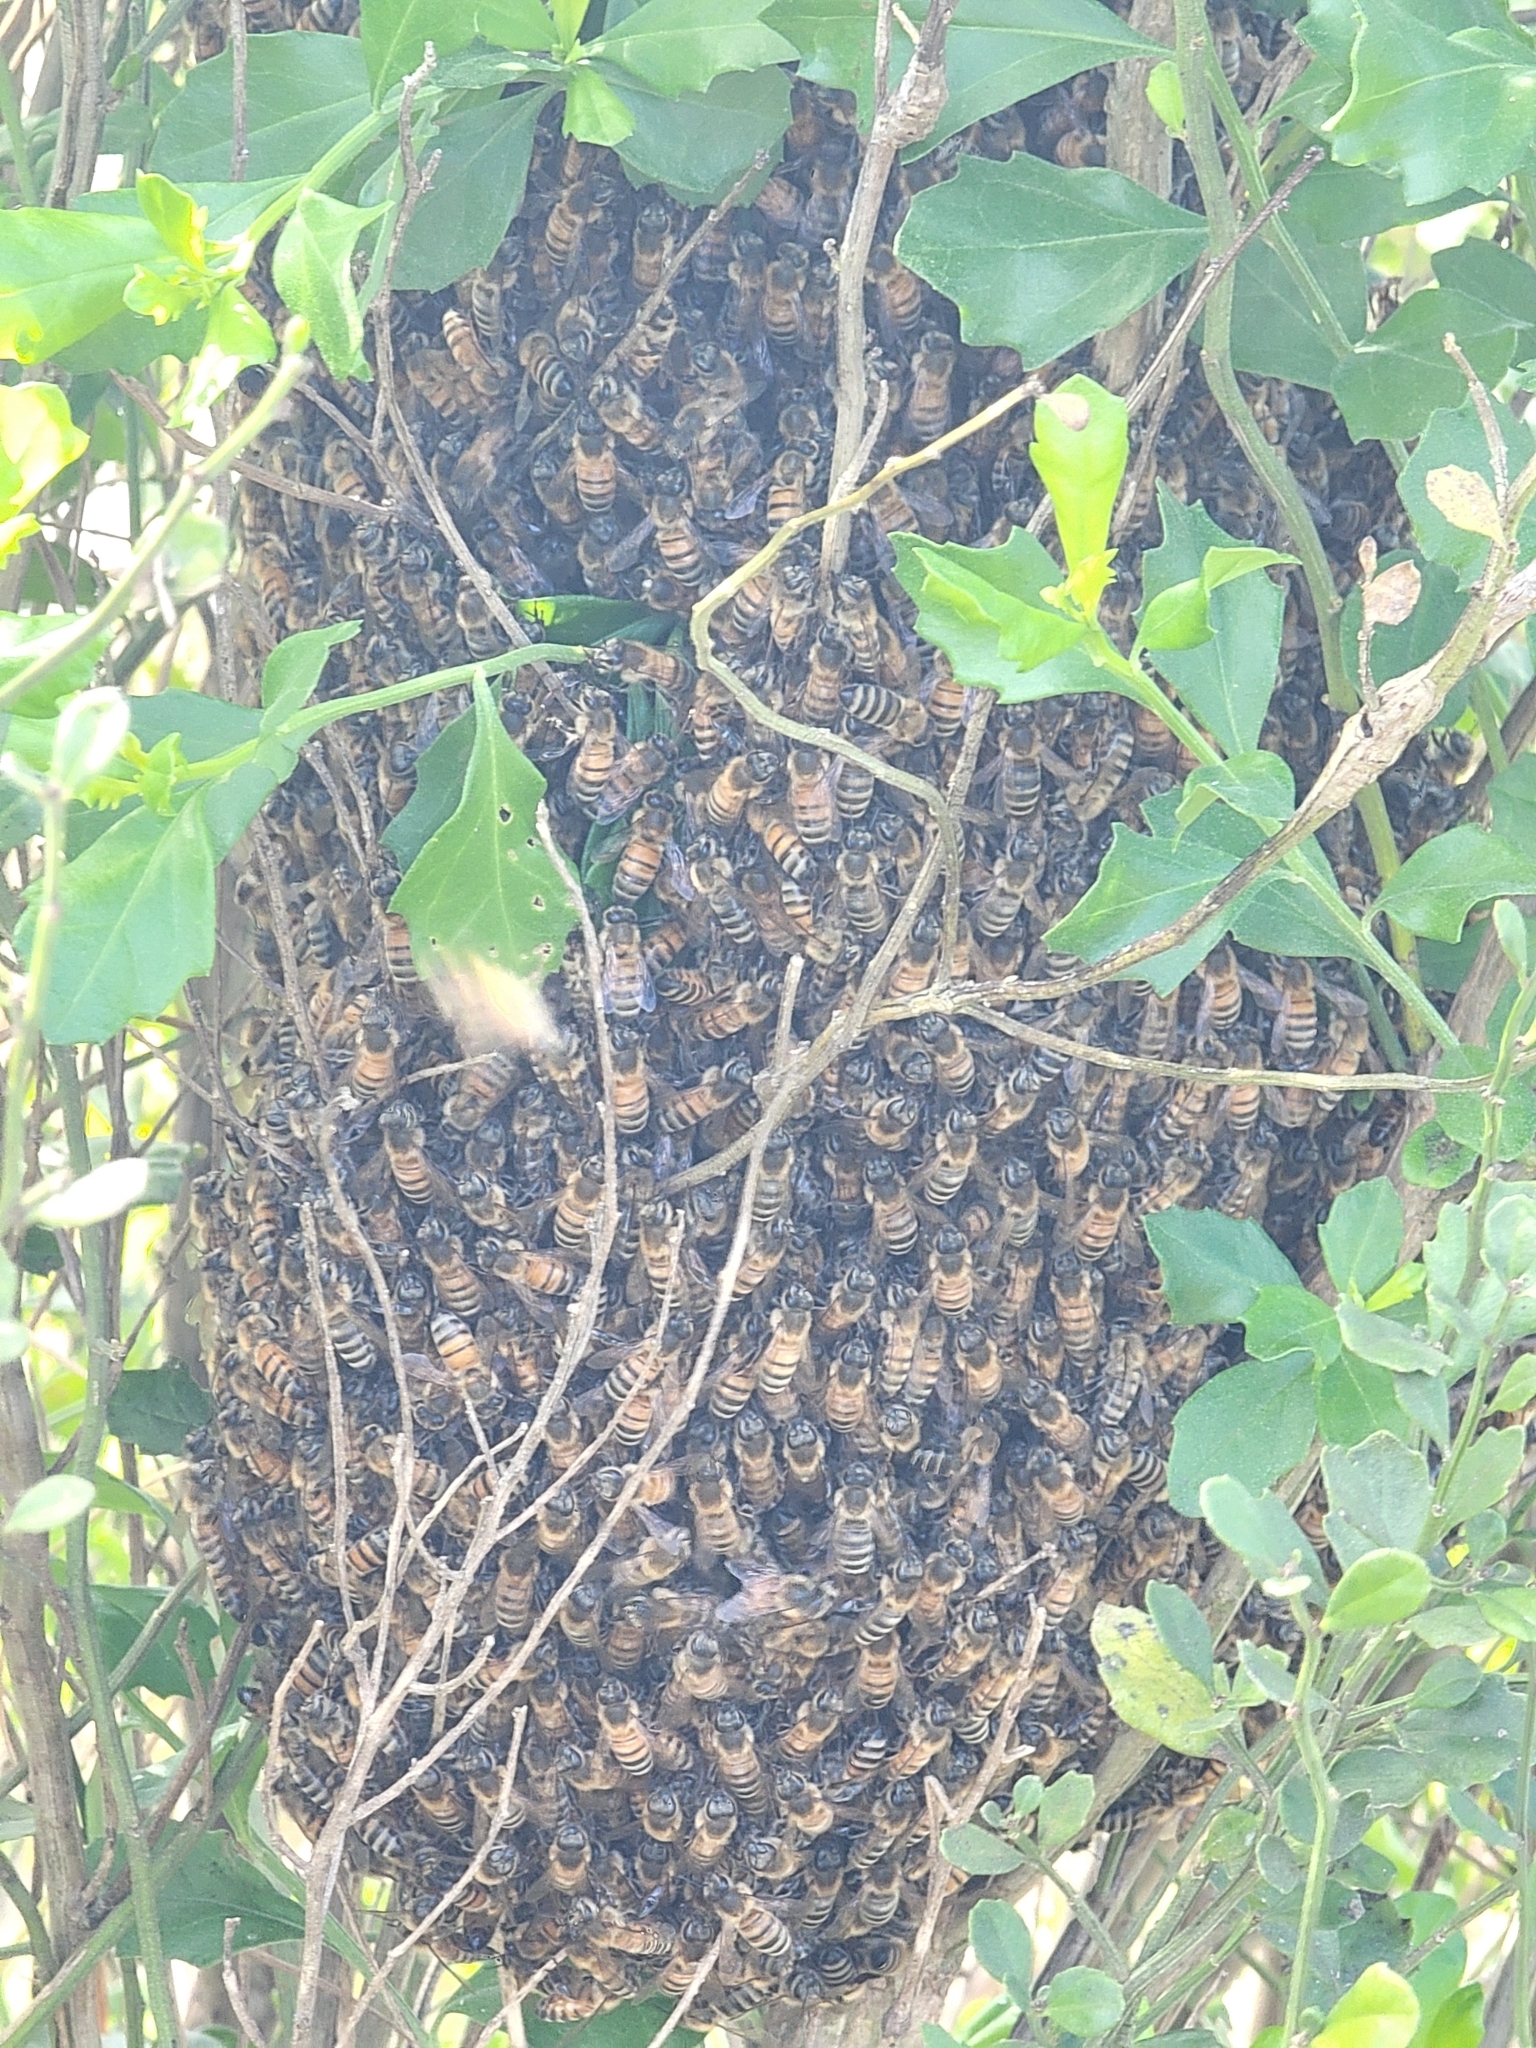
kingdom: Animalia
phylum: Arthropoda
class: Insecta
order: Hymenoptera
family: Apidae
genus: Apis
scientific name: Apis mellifera
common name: Honey bee
